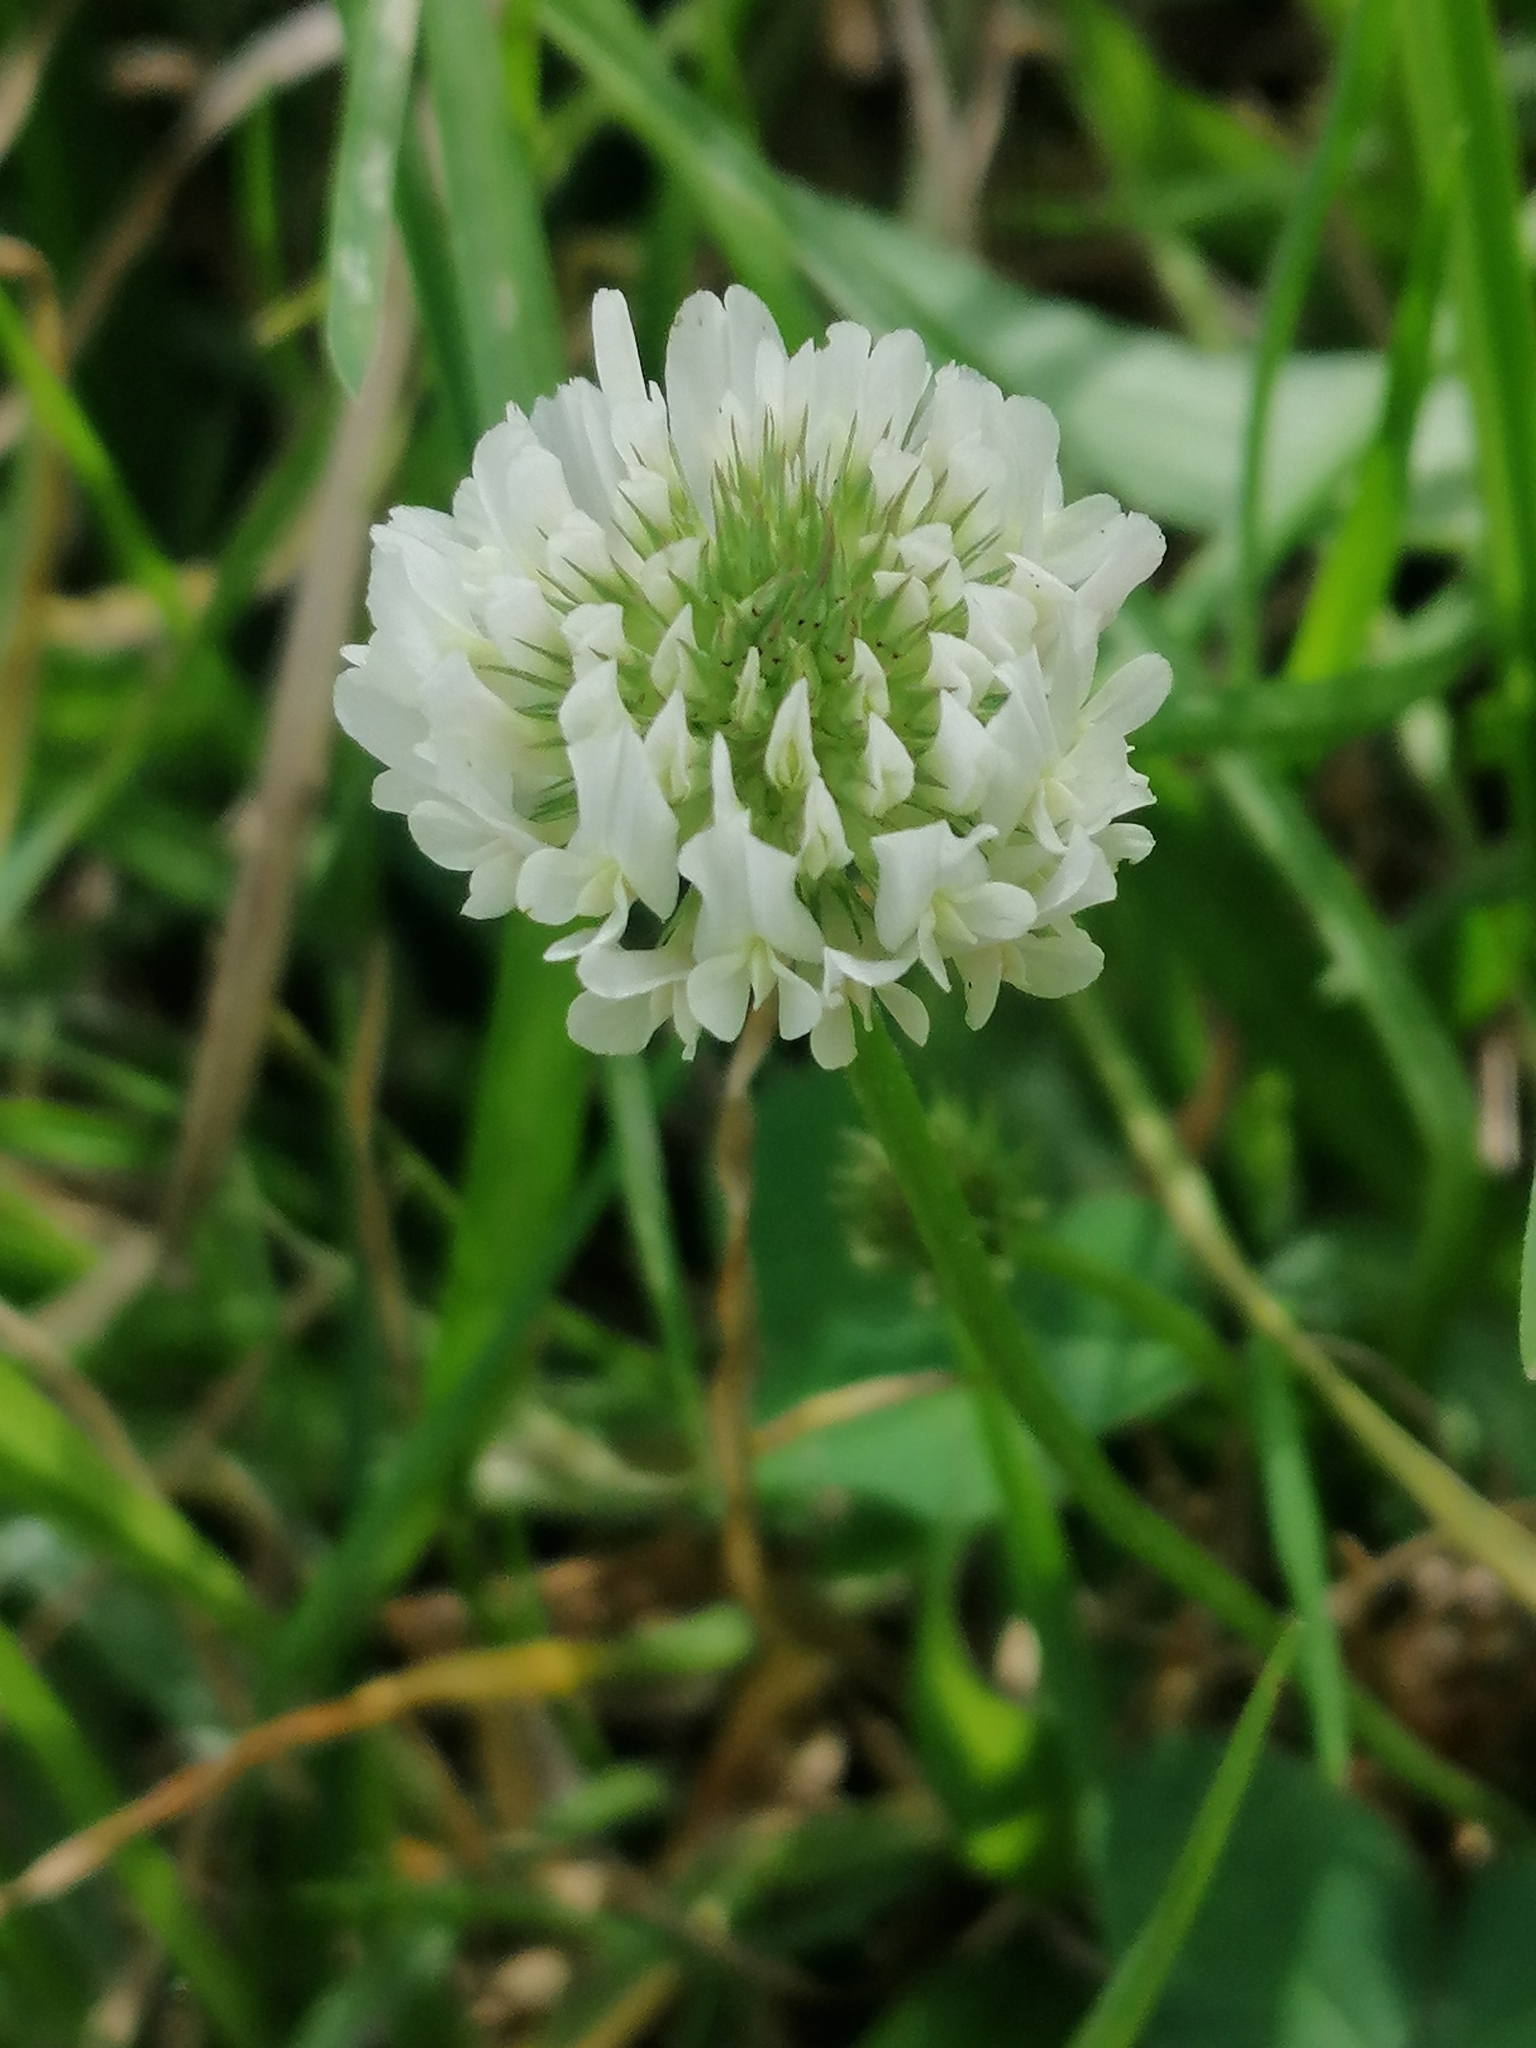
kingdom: Plantae
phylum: Tracheophyta
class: Magnoliopsida
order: Fabales
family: Fabaceae
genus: Trifolium
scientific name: Trifolium repens
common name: White clover
